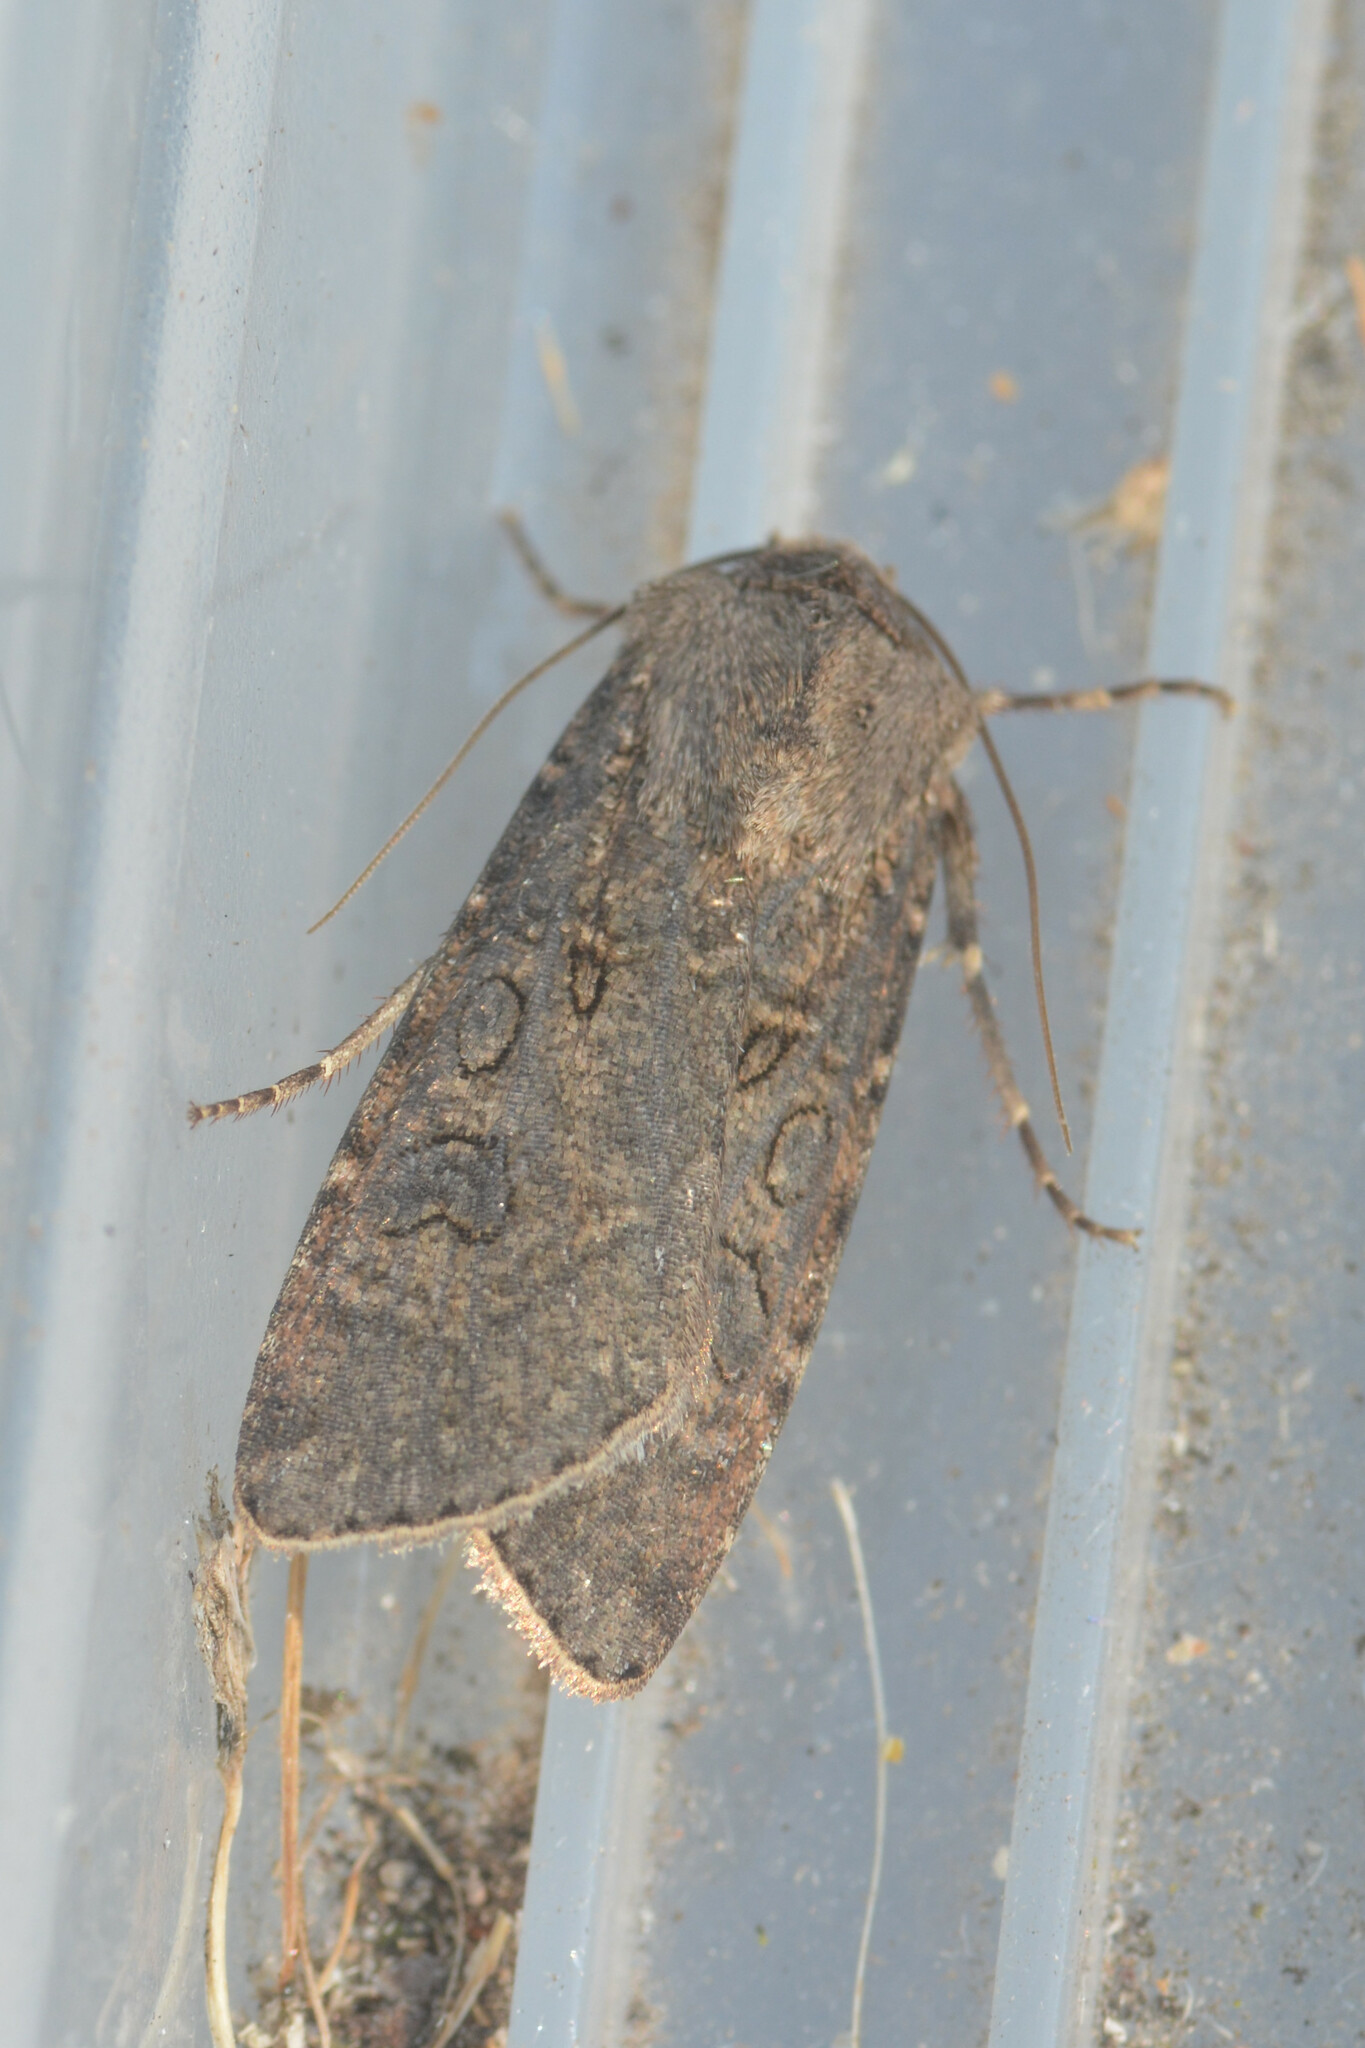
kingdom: Animalia
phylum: Arthropoda
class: Insecta
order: Lepidoptera
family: Noctuidae
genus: Agrotis
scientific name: Agrotis segetum
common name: Turnip moth
